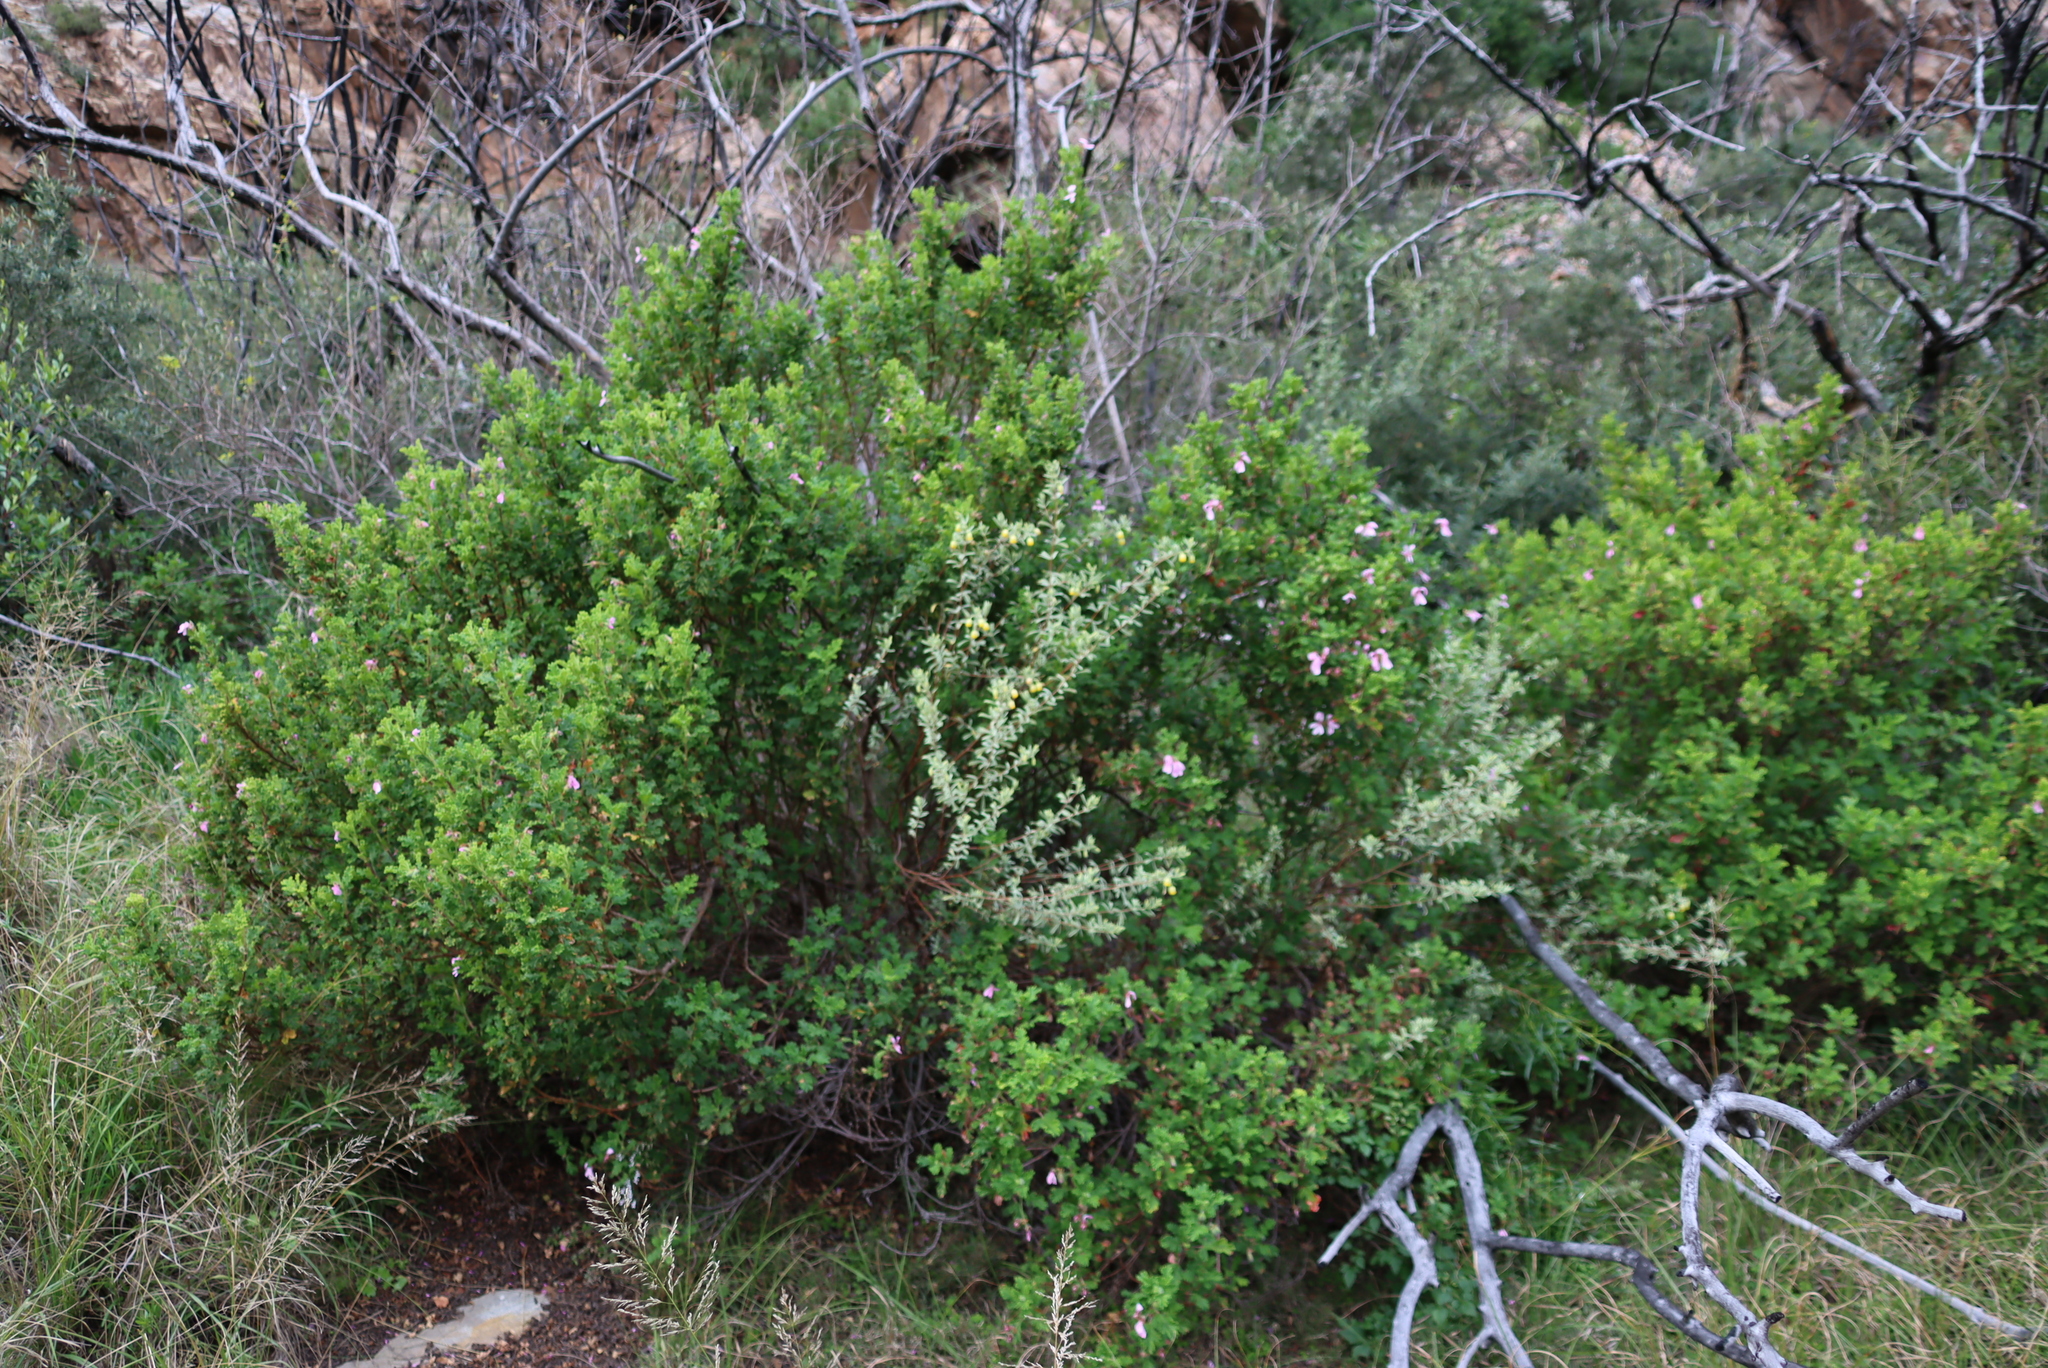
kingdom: Plantae
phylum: Tracheophyta
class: Magnoliopsida
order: Geraniales
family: Geraniaceae
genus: Pelargonium
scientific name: Pelargonium panduriforme
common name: Oakleaf garden geranium
